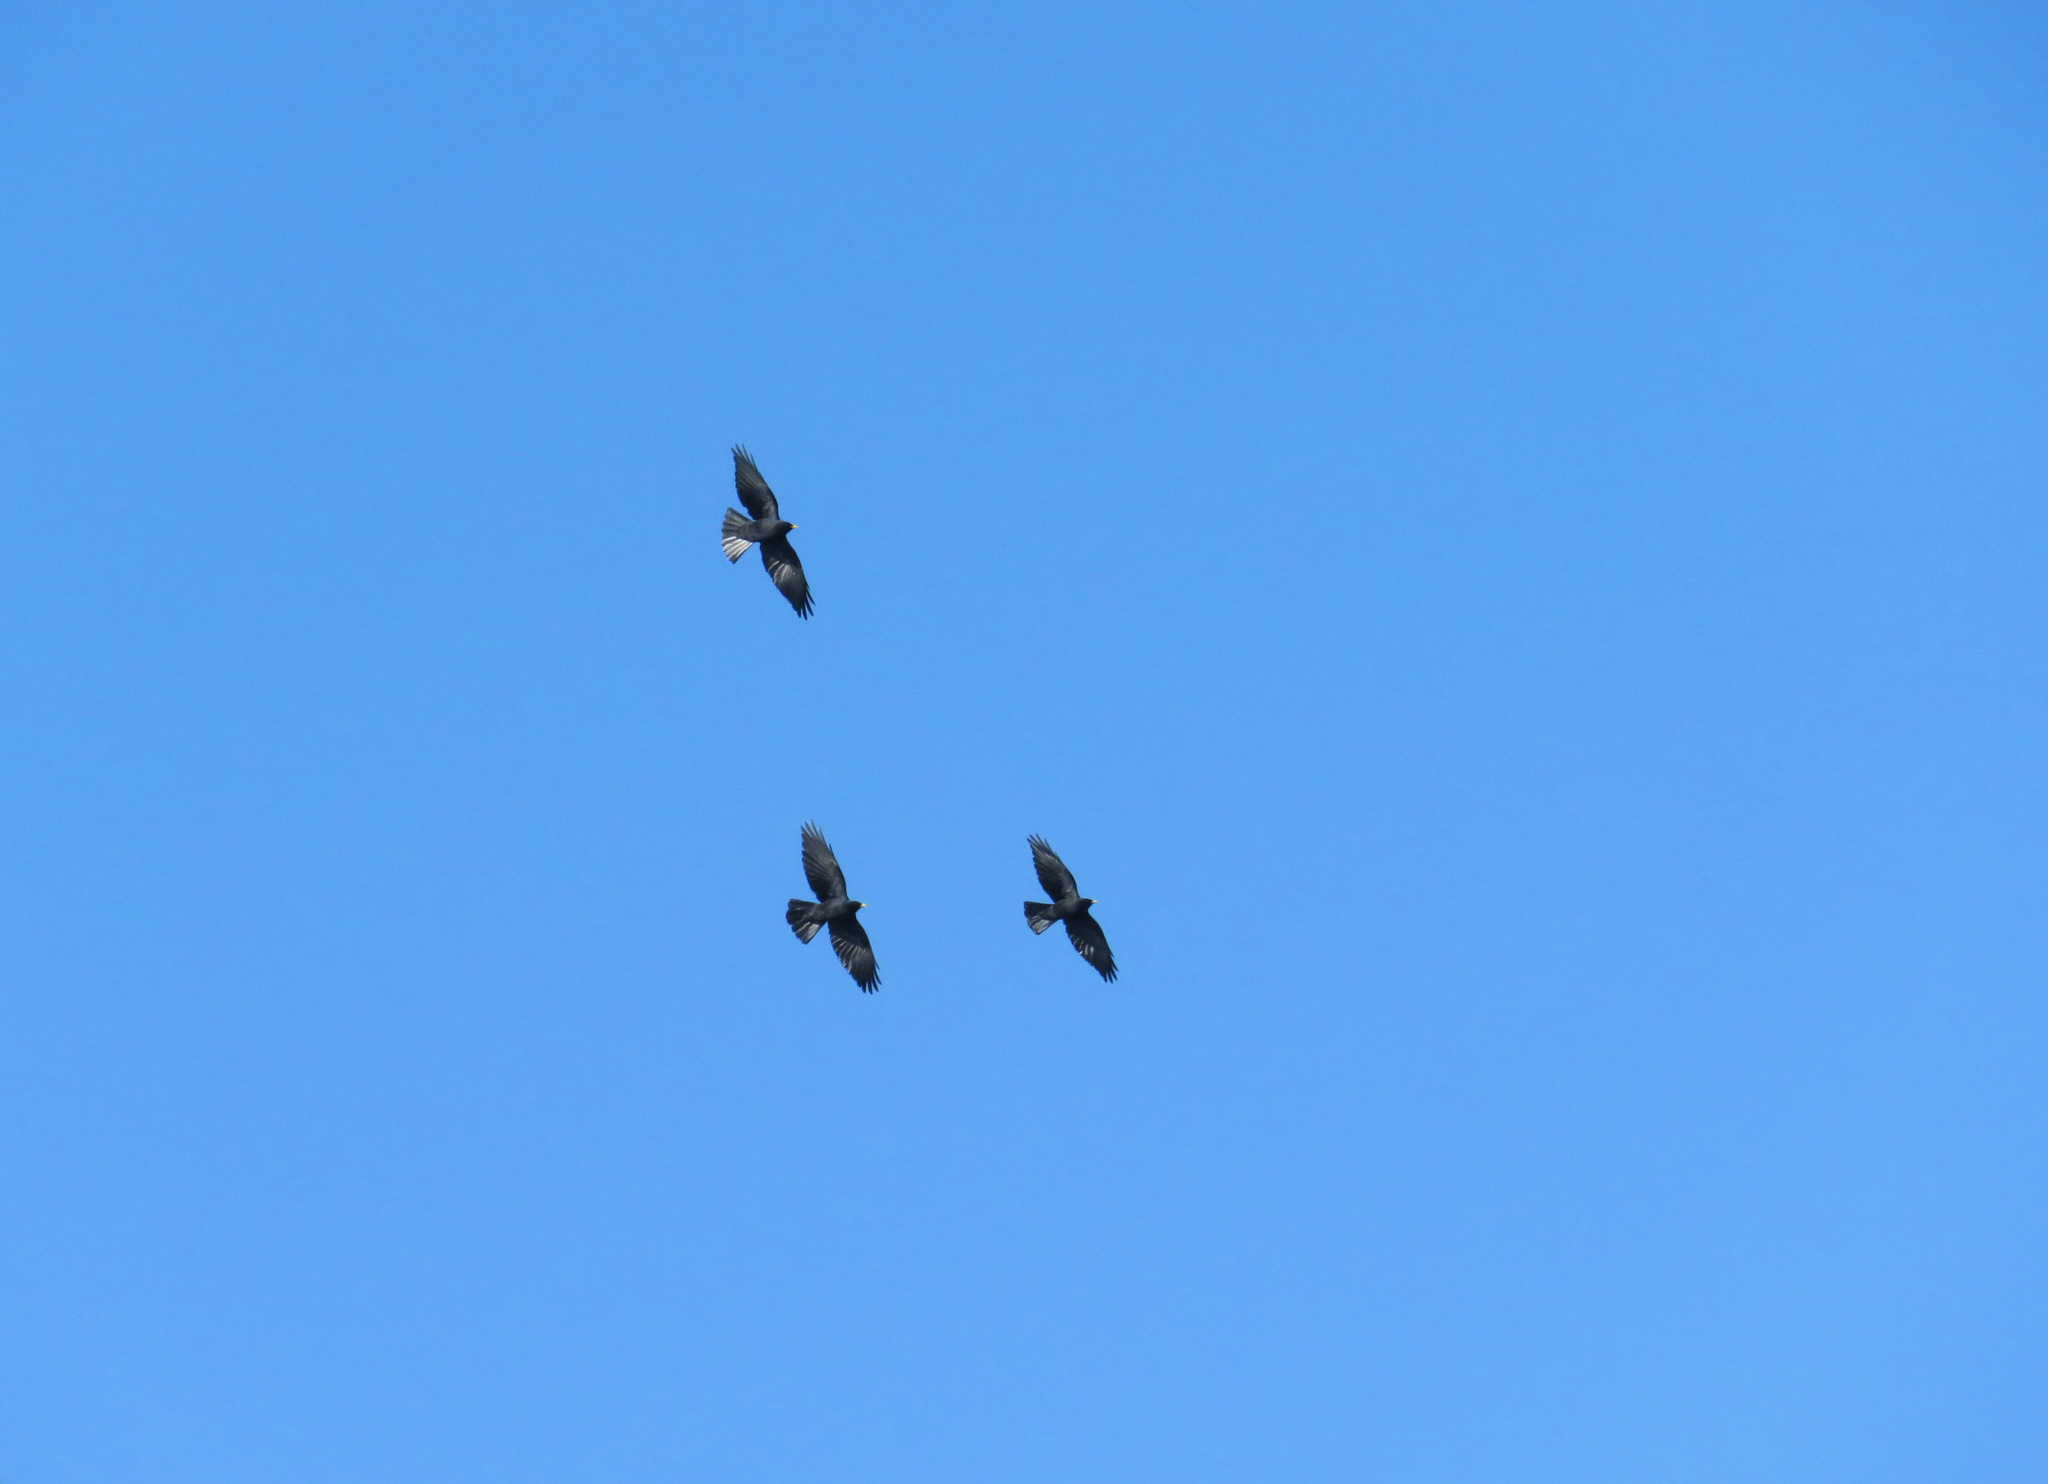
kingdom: Animalia
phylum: Chordata
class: Aves
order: Passeriformes
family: Corvidae
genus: Pyrrhocorax
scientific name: Pyrrhocorax graculus
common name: Alpine chough
